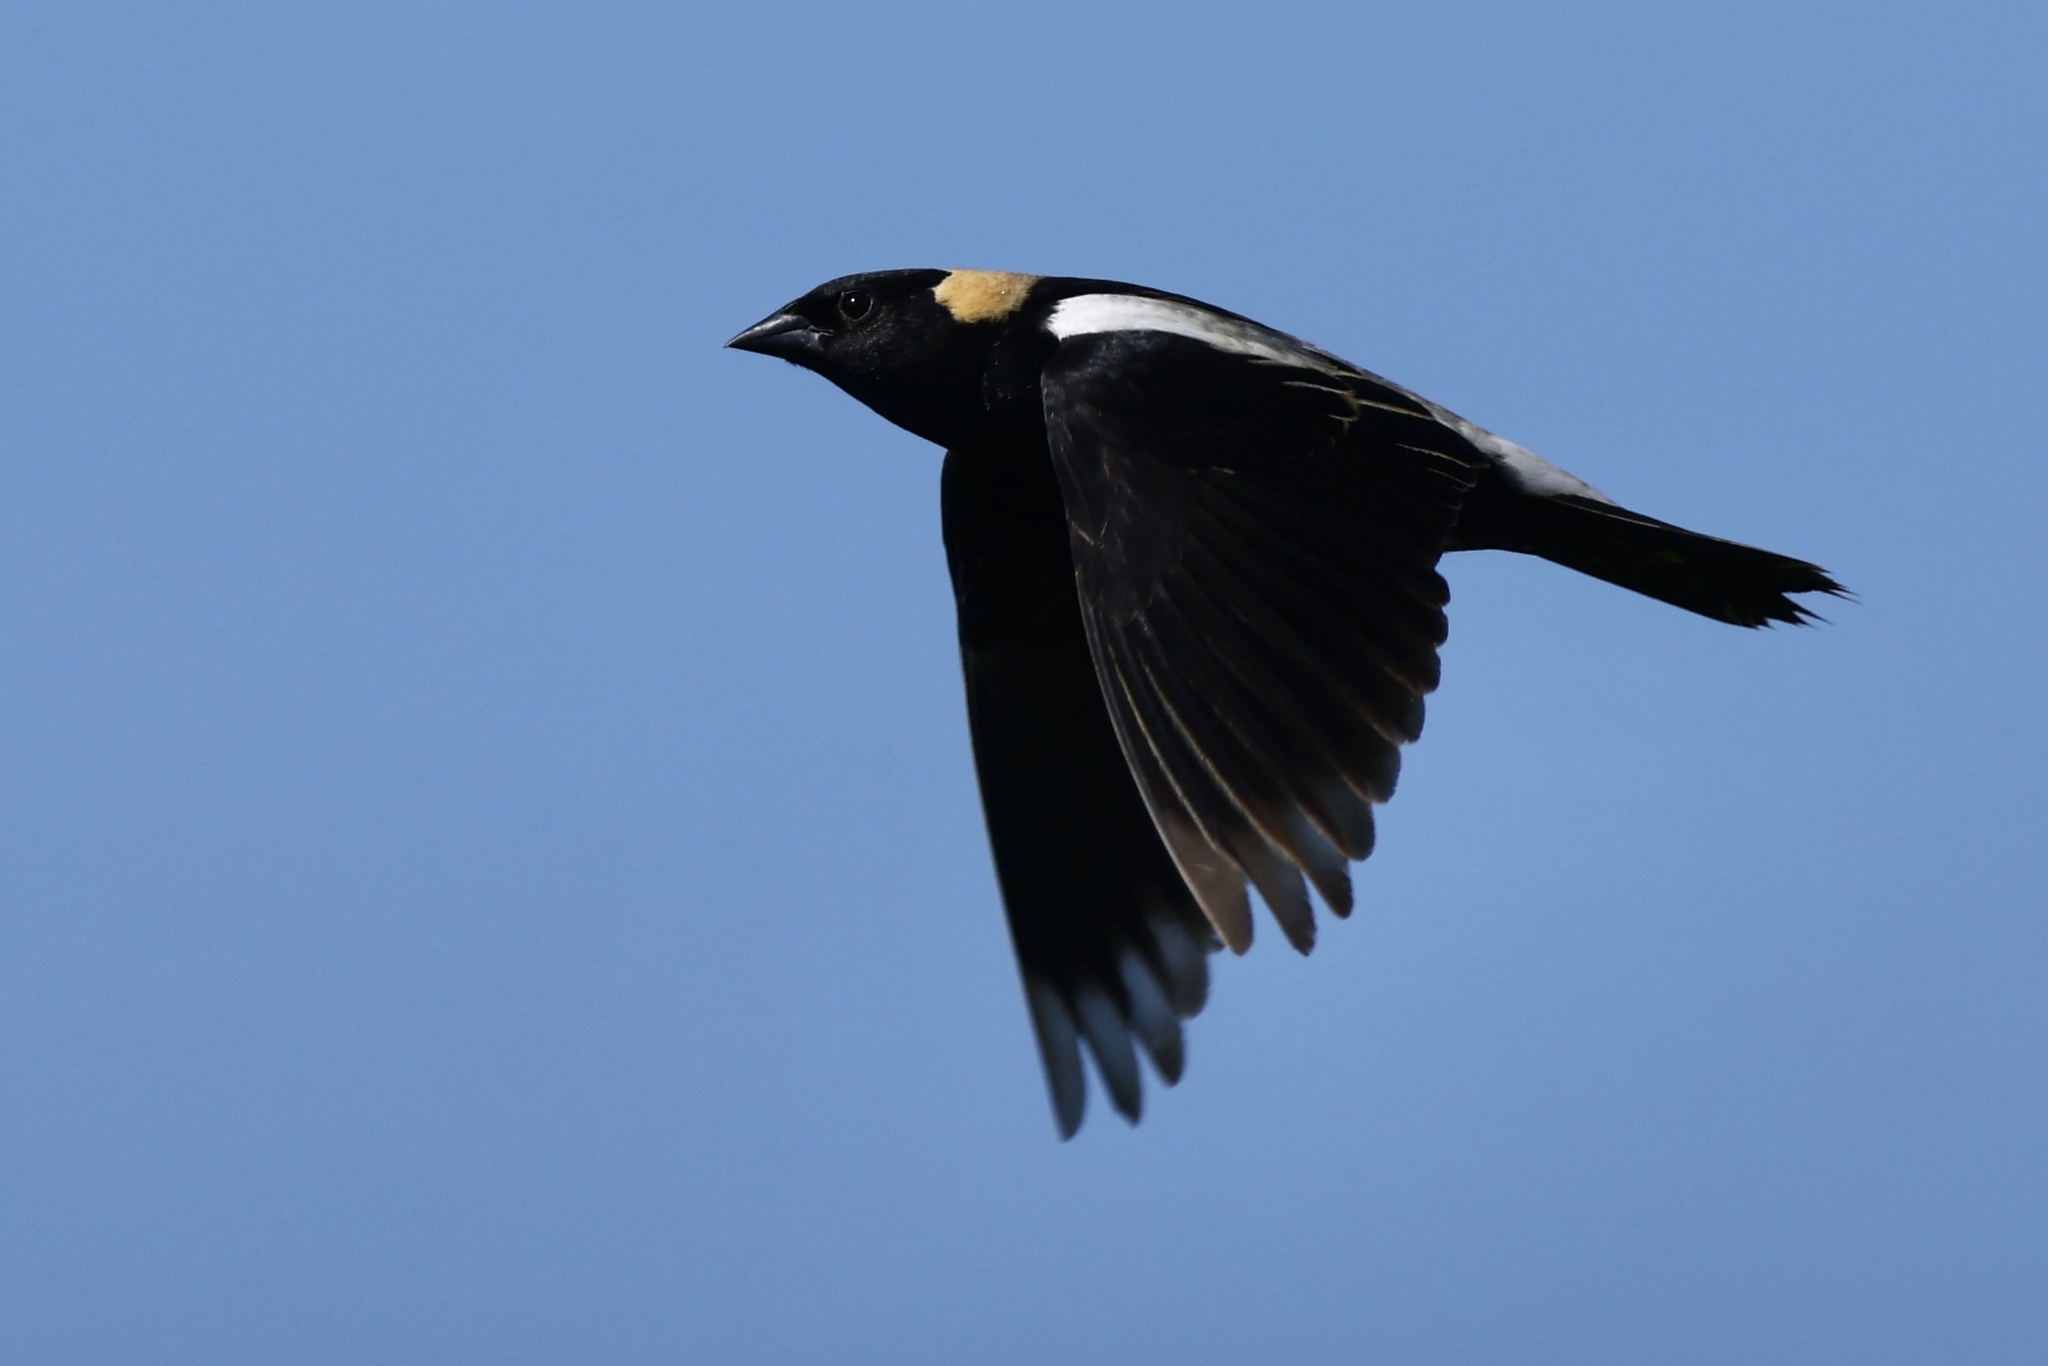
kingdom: Animalia
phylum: Chordata
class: Aves
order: Passeriformes
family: Icteridae
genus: Dolichonyx
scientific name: Dolichonyx oryzivorus
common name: Bobolink
